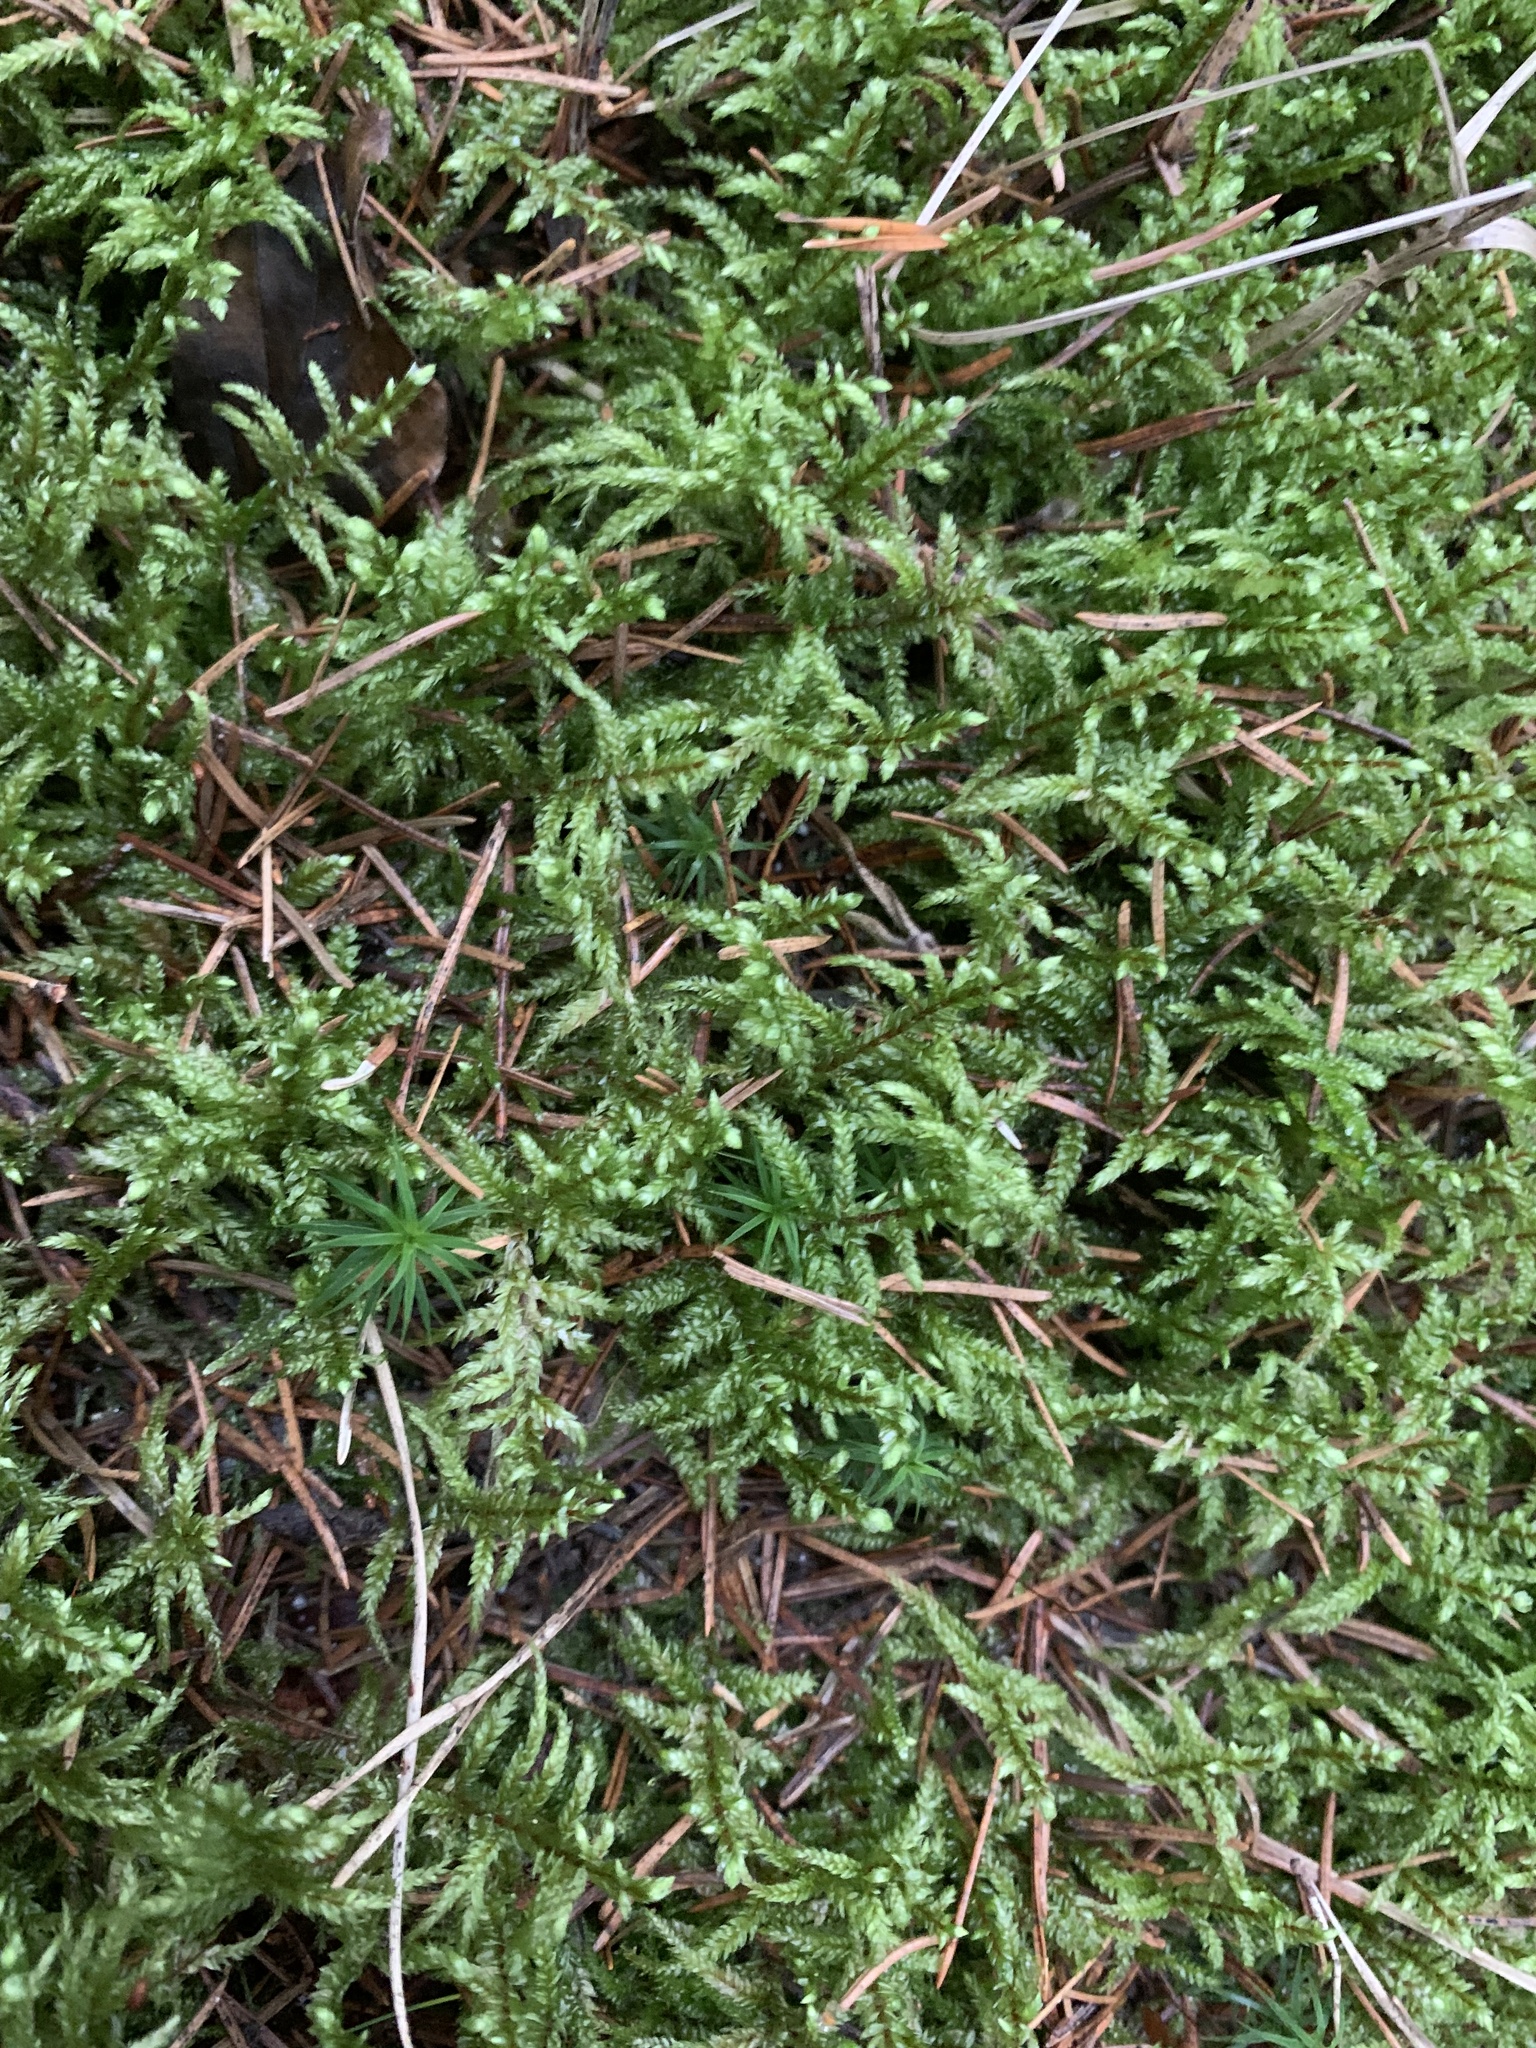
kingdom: Plantae
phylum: Bryophyta
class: Bryopsida
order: Hypnales
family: Hylocomiaceae
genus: Pleurozium
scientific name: Pleurozium schreberi
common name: Red-stemmed feather moss
